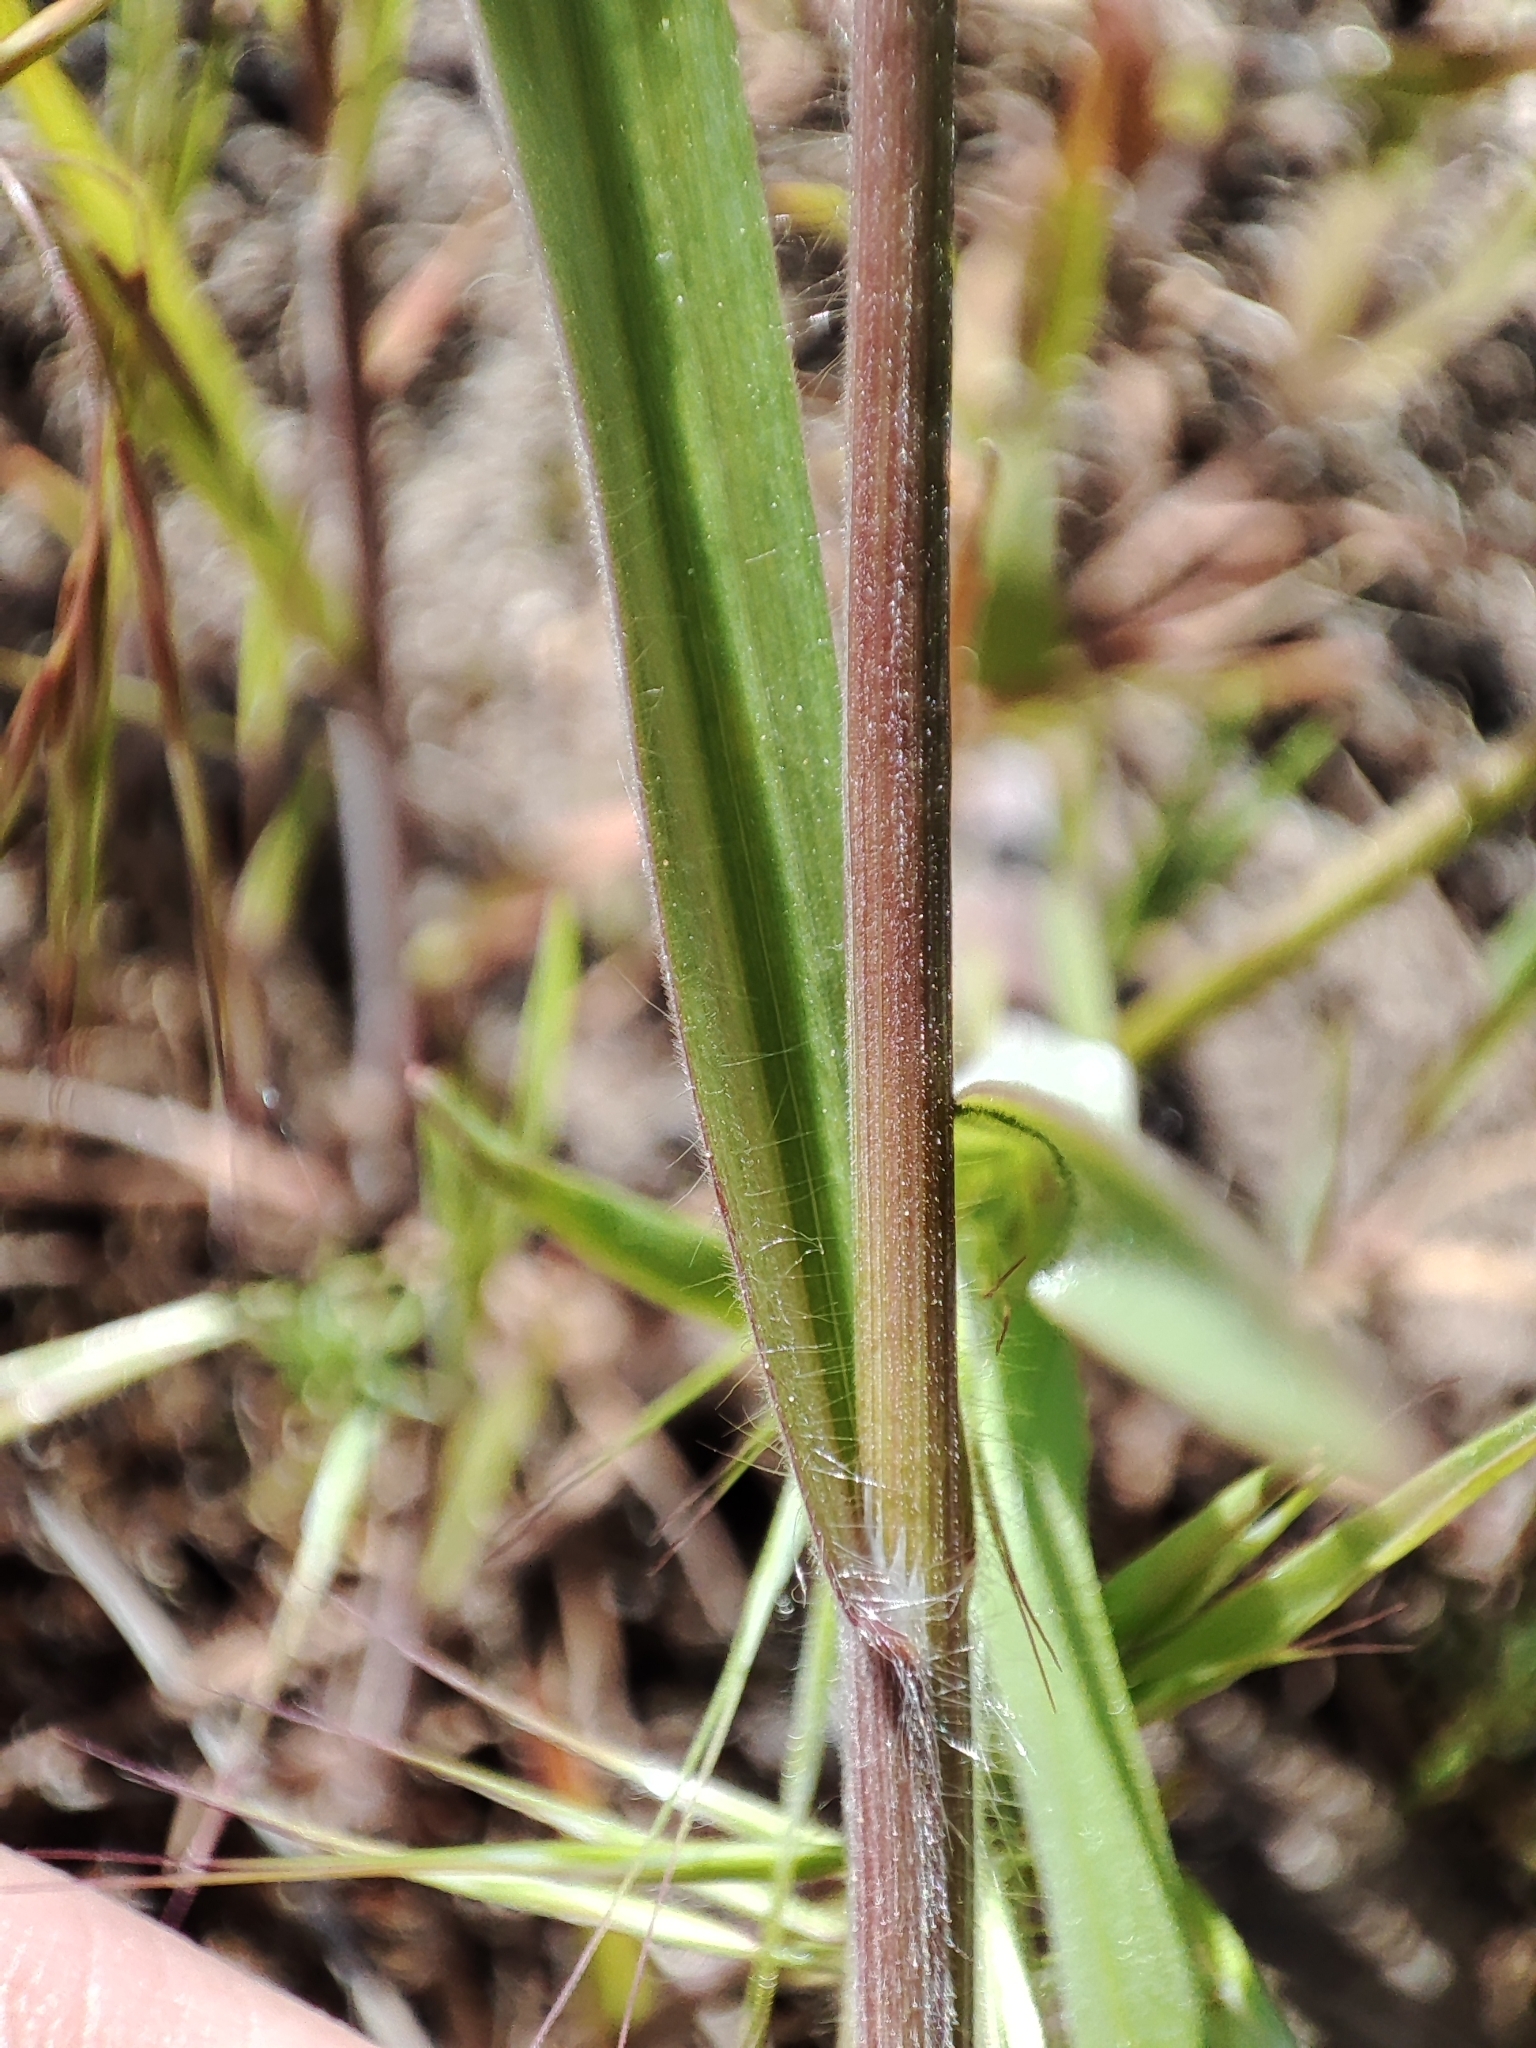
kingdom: Plantae
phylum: Tracheophyta
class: Liliopsida
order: Poales
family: Poaceae
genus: Bromus
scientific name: Bromus tectorum
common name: Cheatgrass
